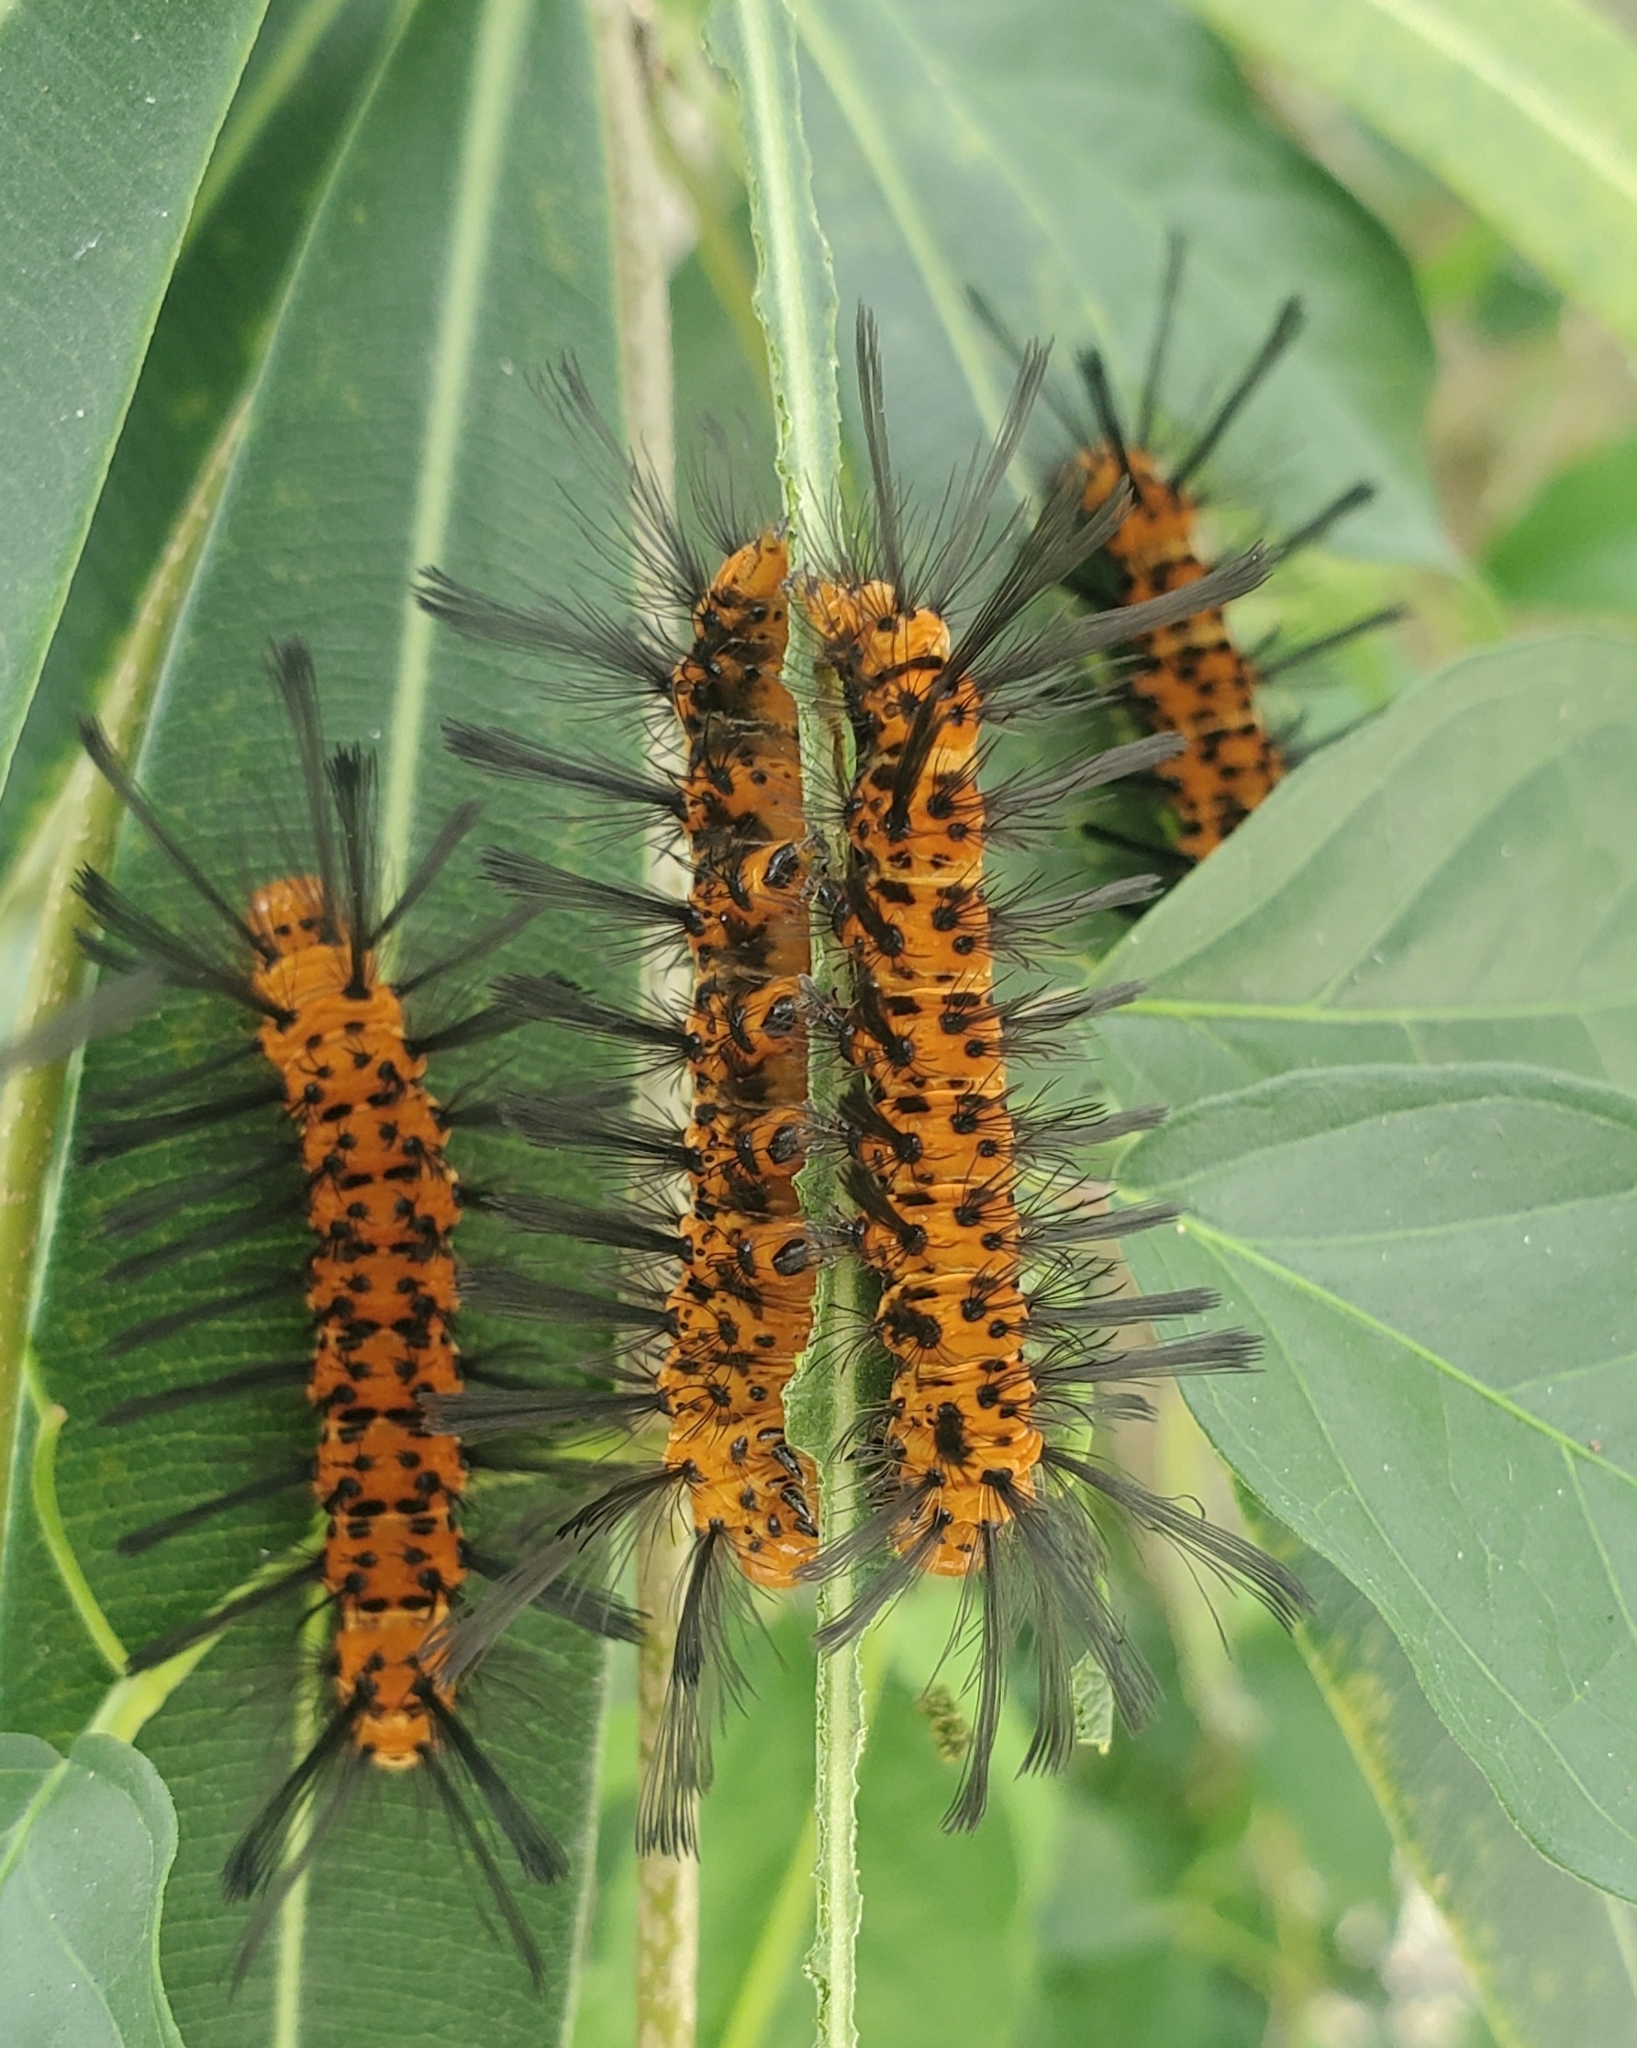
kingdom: Animalia
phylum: Arthropoda
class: Insecta
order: Lepidoptera
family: Erebidae
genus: Syntomeida
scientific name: Syntomeida epilais
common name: Polka-dot wasp moth
